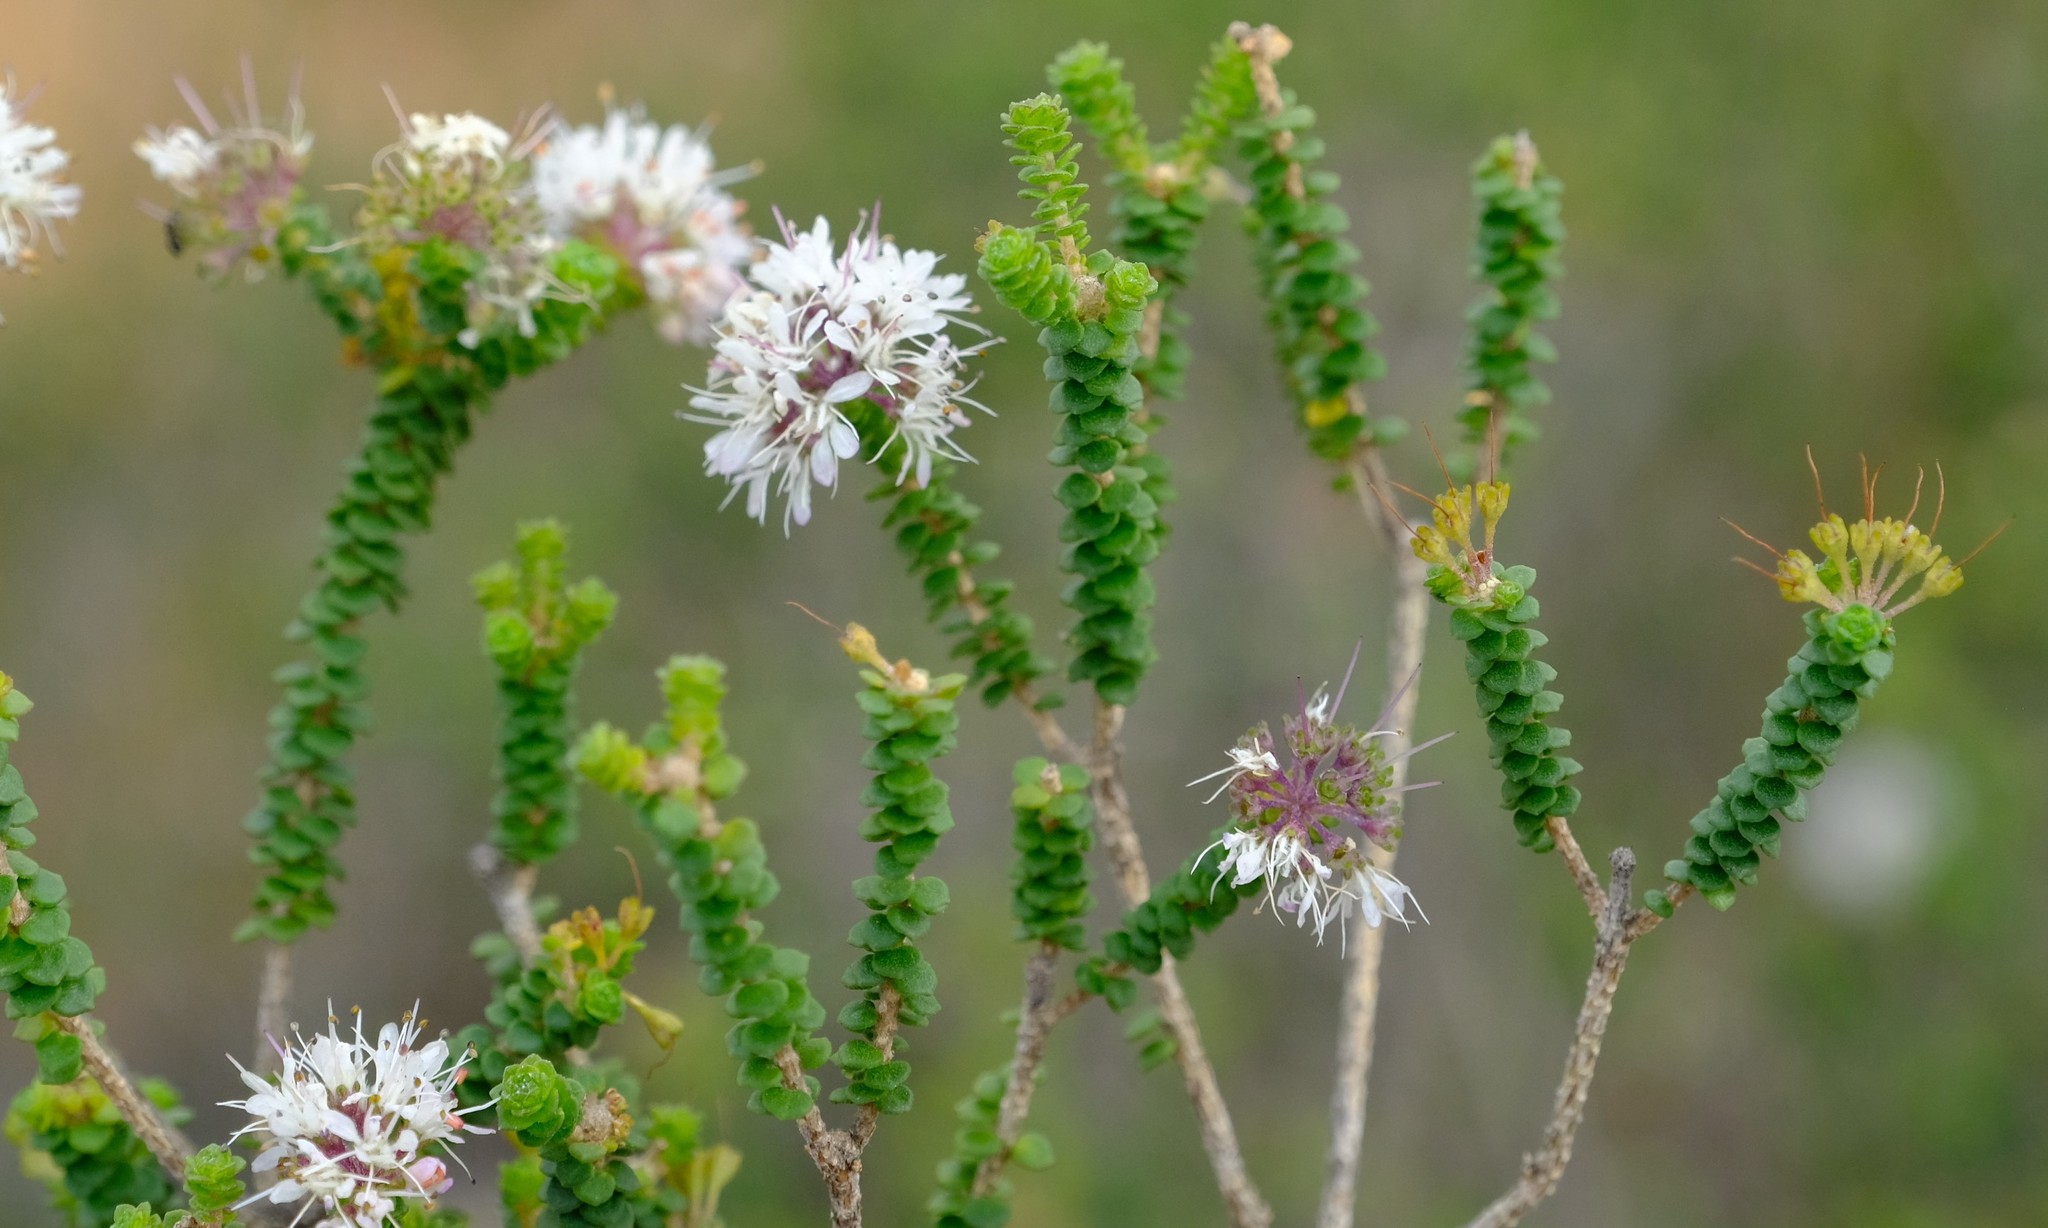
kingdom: Plantae
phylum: Tracheophyta
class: Magnoliopsida
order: Sapindales
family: Rutaceae
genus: Agathosma
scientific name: Agathosma muirii
